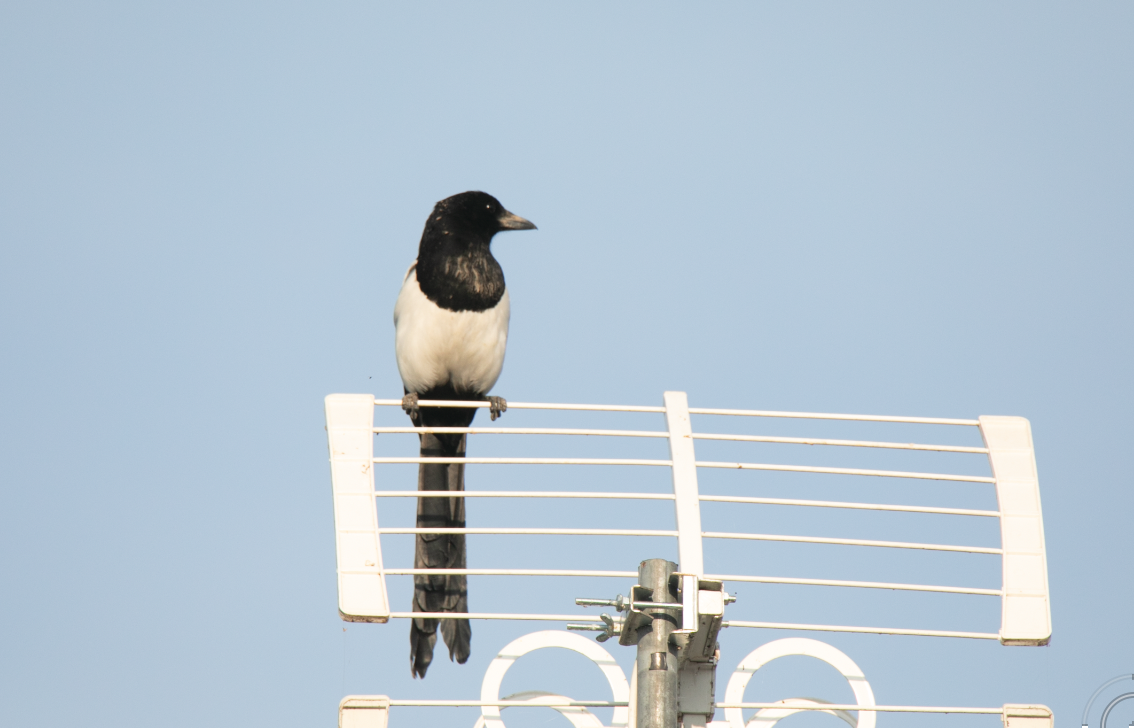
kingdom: Animalia
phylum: Chordata
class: Aves
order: Passeriformes
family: Corvidae
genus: Pica
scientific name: Pica pica
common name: Eurasian magpie
